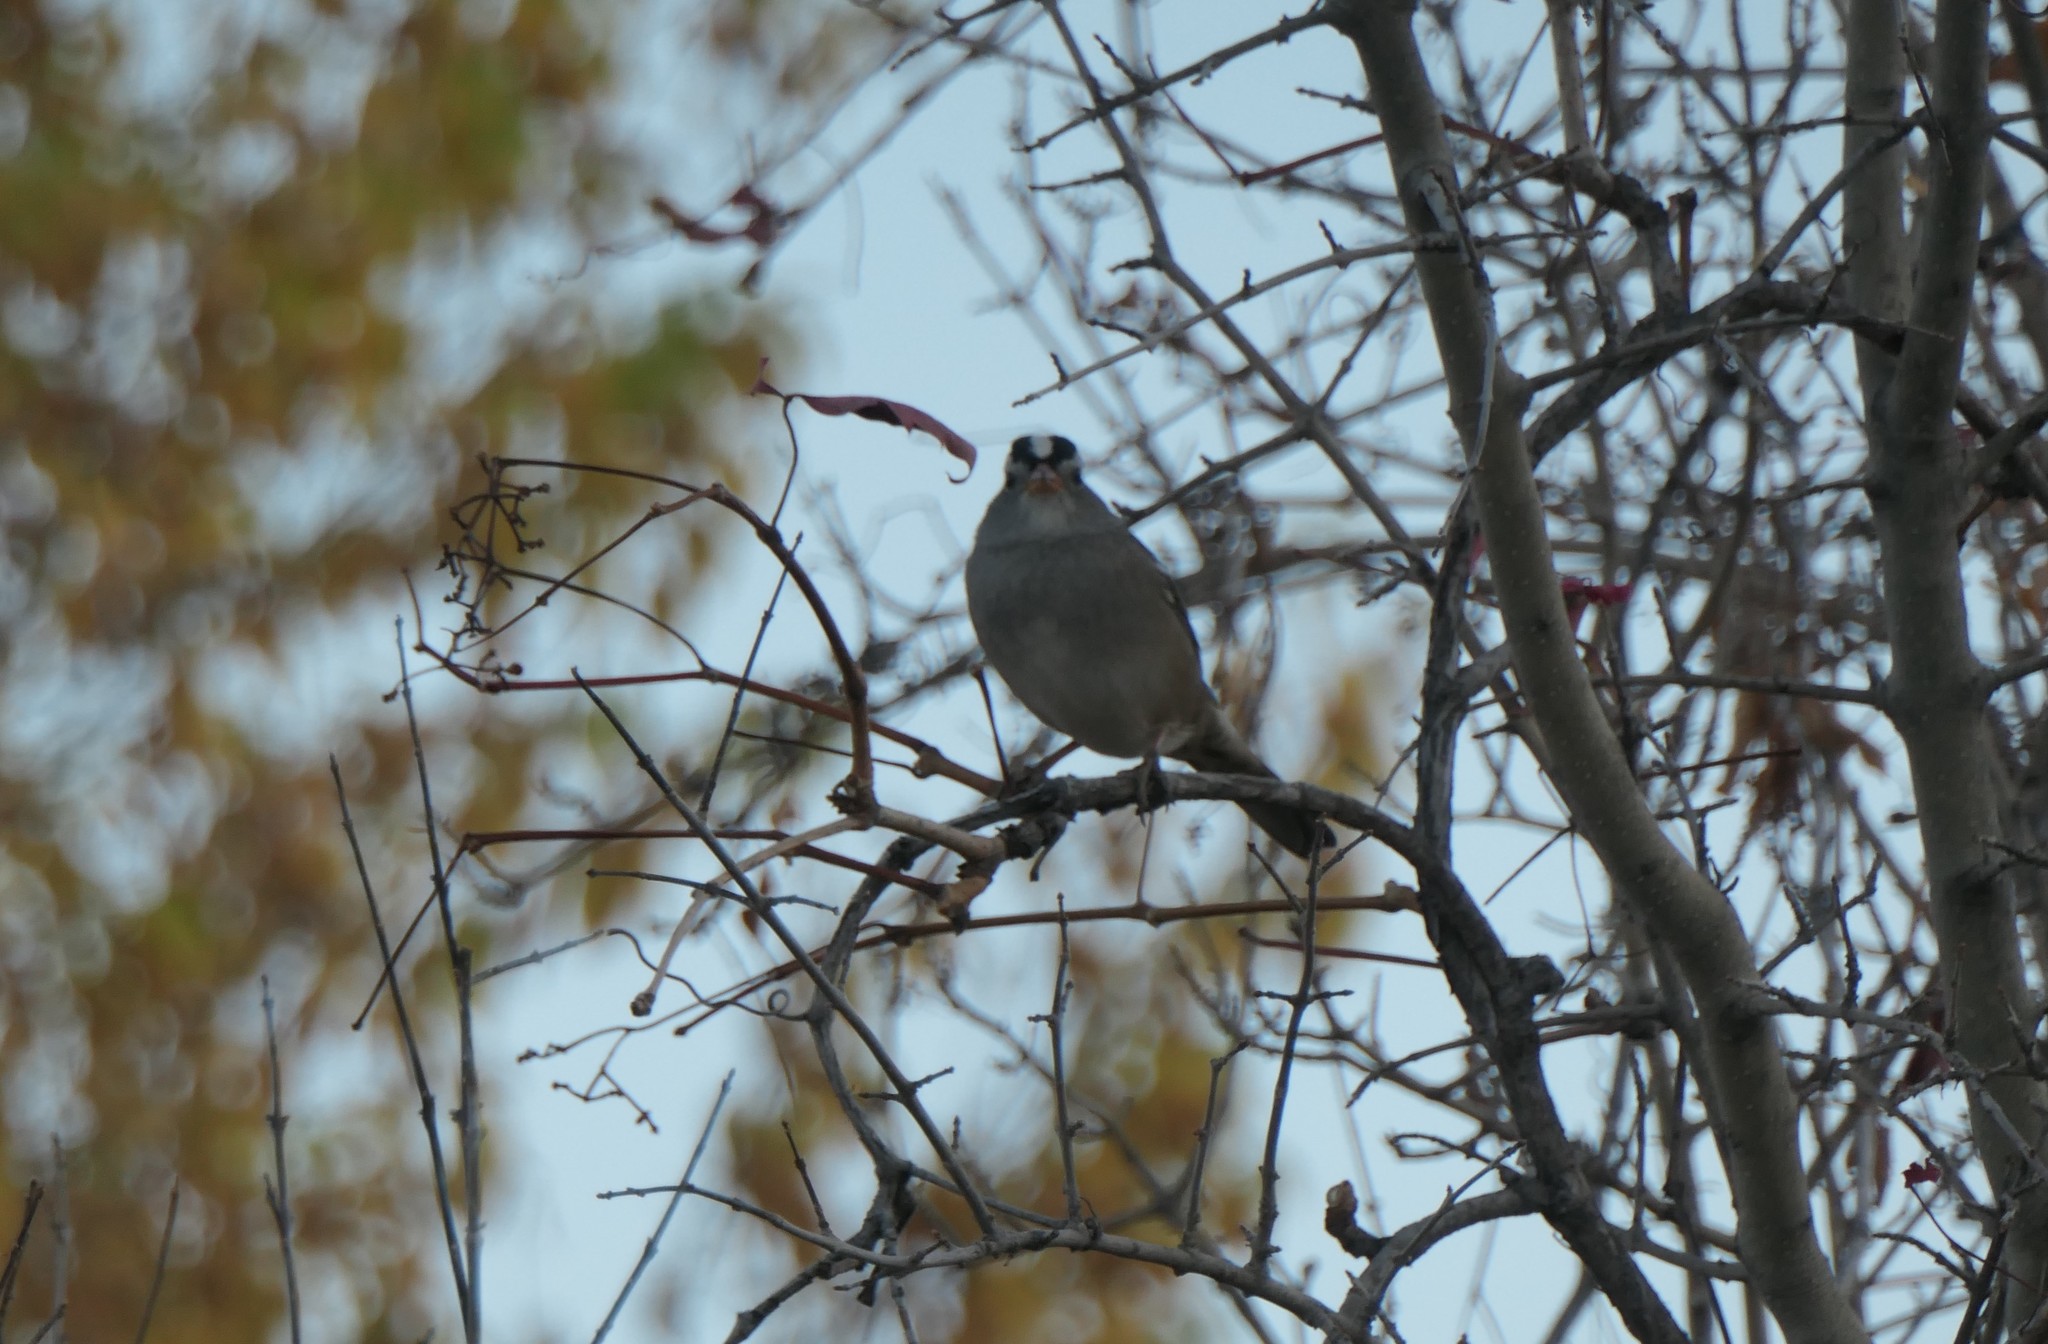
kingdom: Animalia
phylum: Chordata
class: Aves
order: Passeriformes
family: Passerellidae
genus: Zonotrichia
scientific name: Zonotrichia leucophrys
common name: White-crowned sparrow
